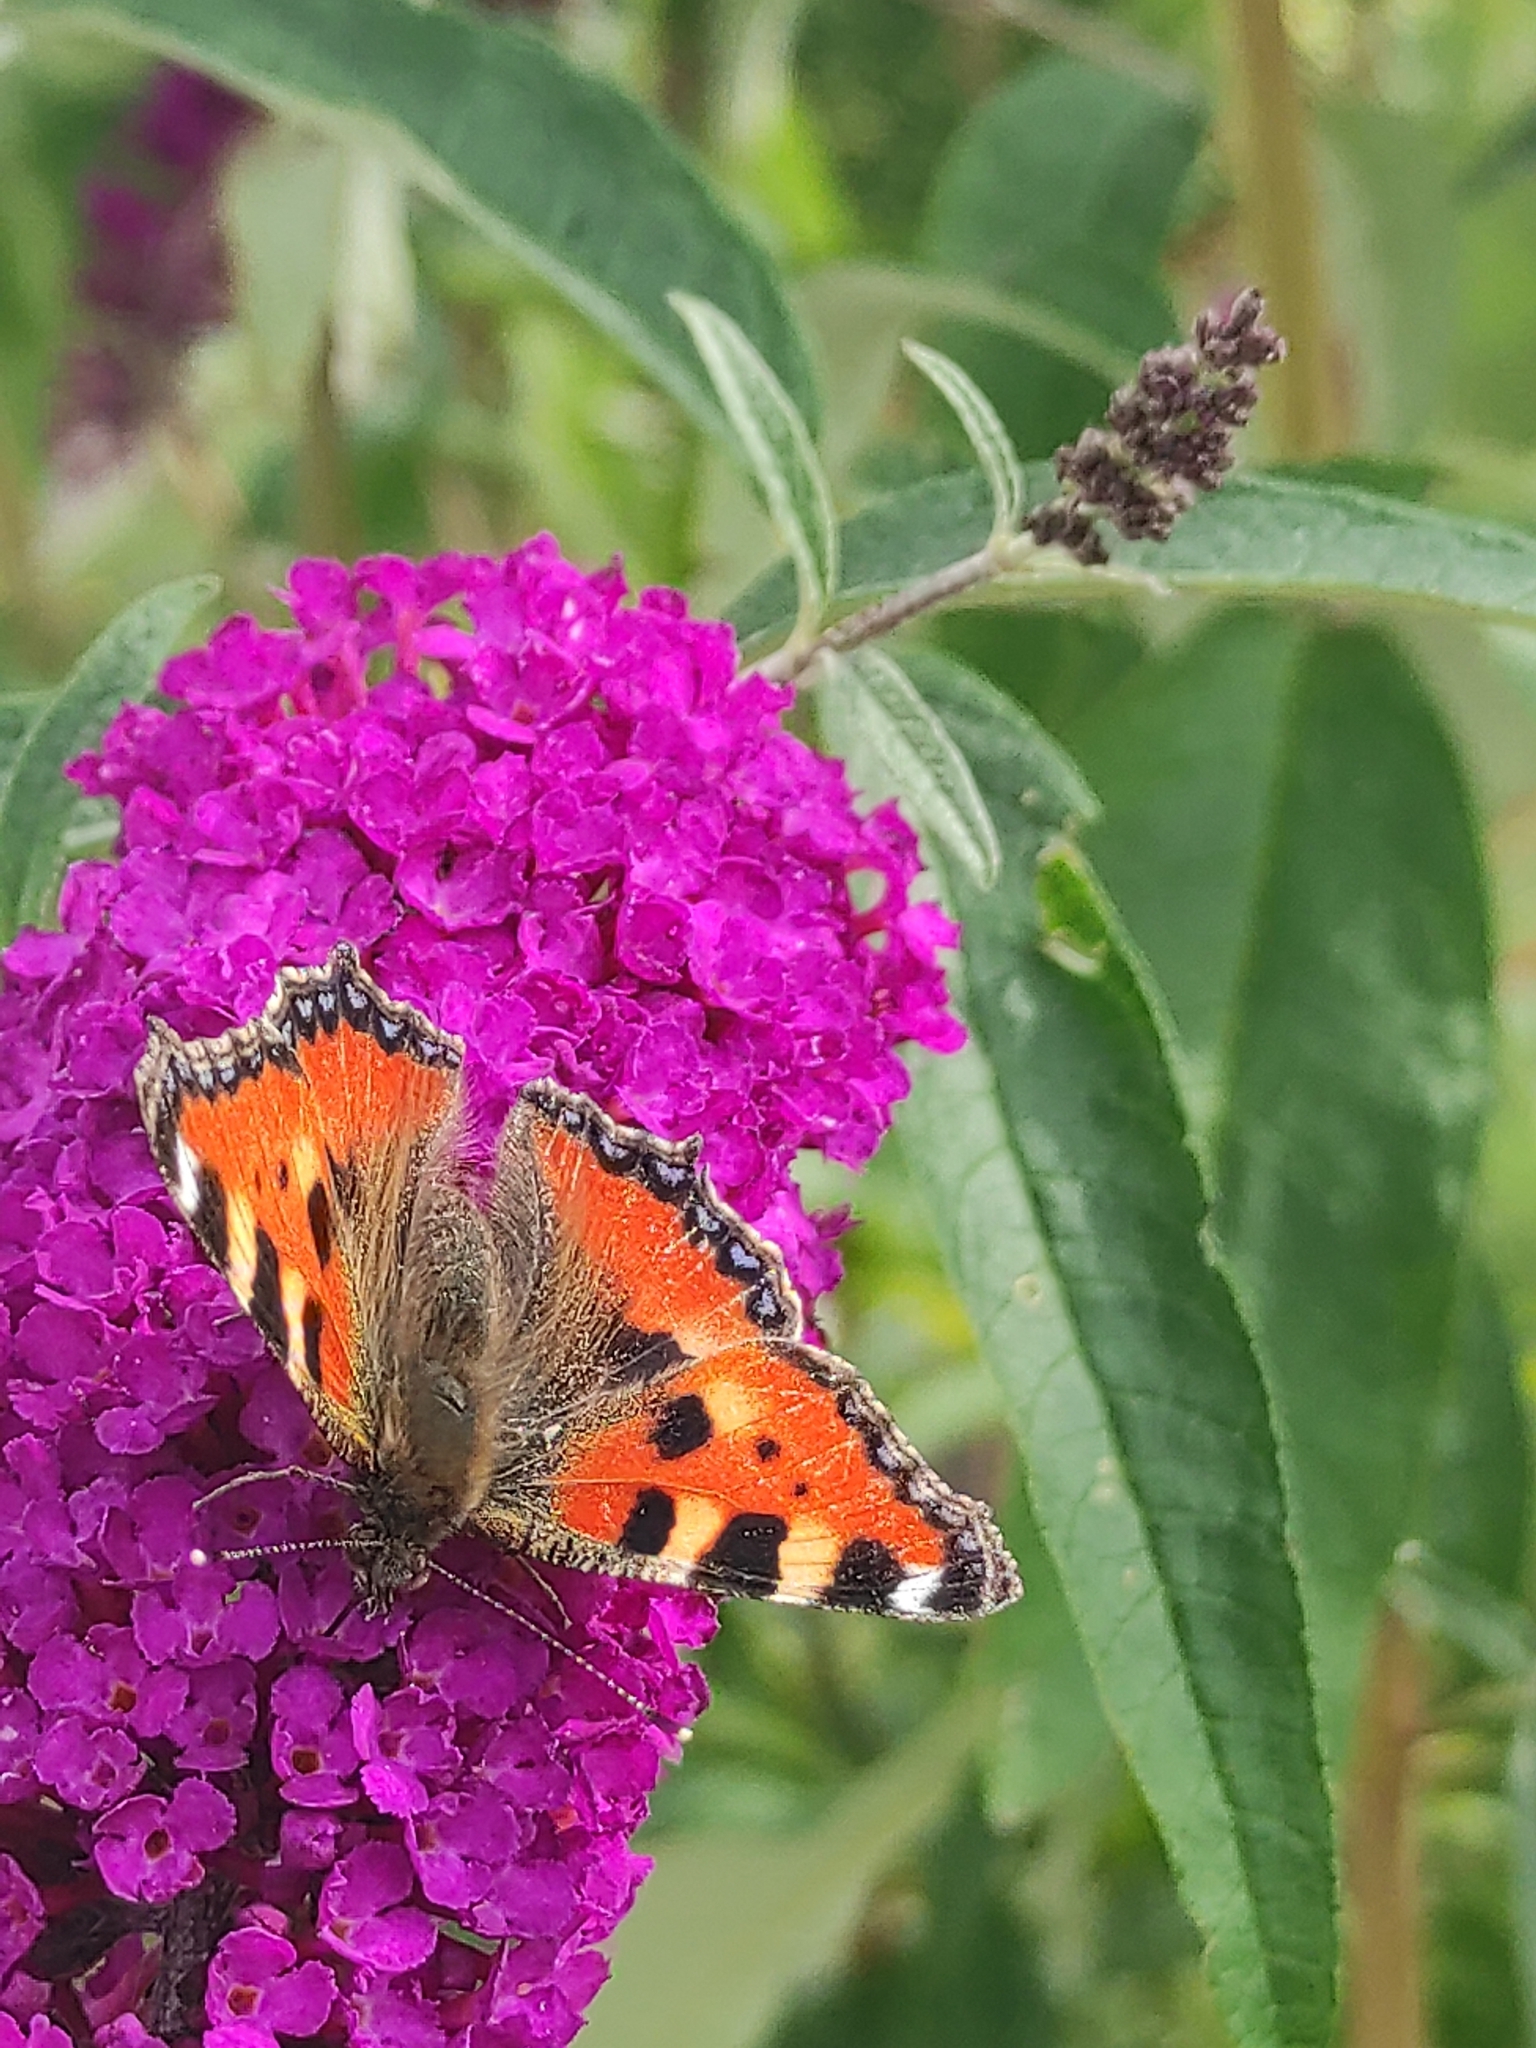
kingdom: Animalia
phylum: Arthropoda
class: Insecta
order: Lepidoptera
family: Nymphalidae
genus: Aglais
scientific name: Aglais urticae
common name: Small tortoiseshell
